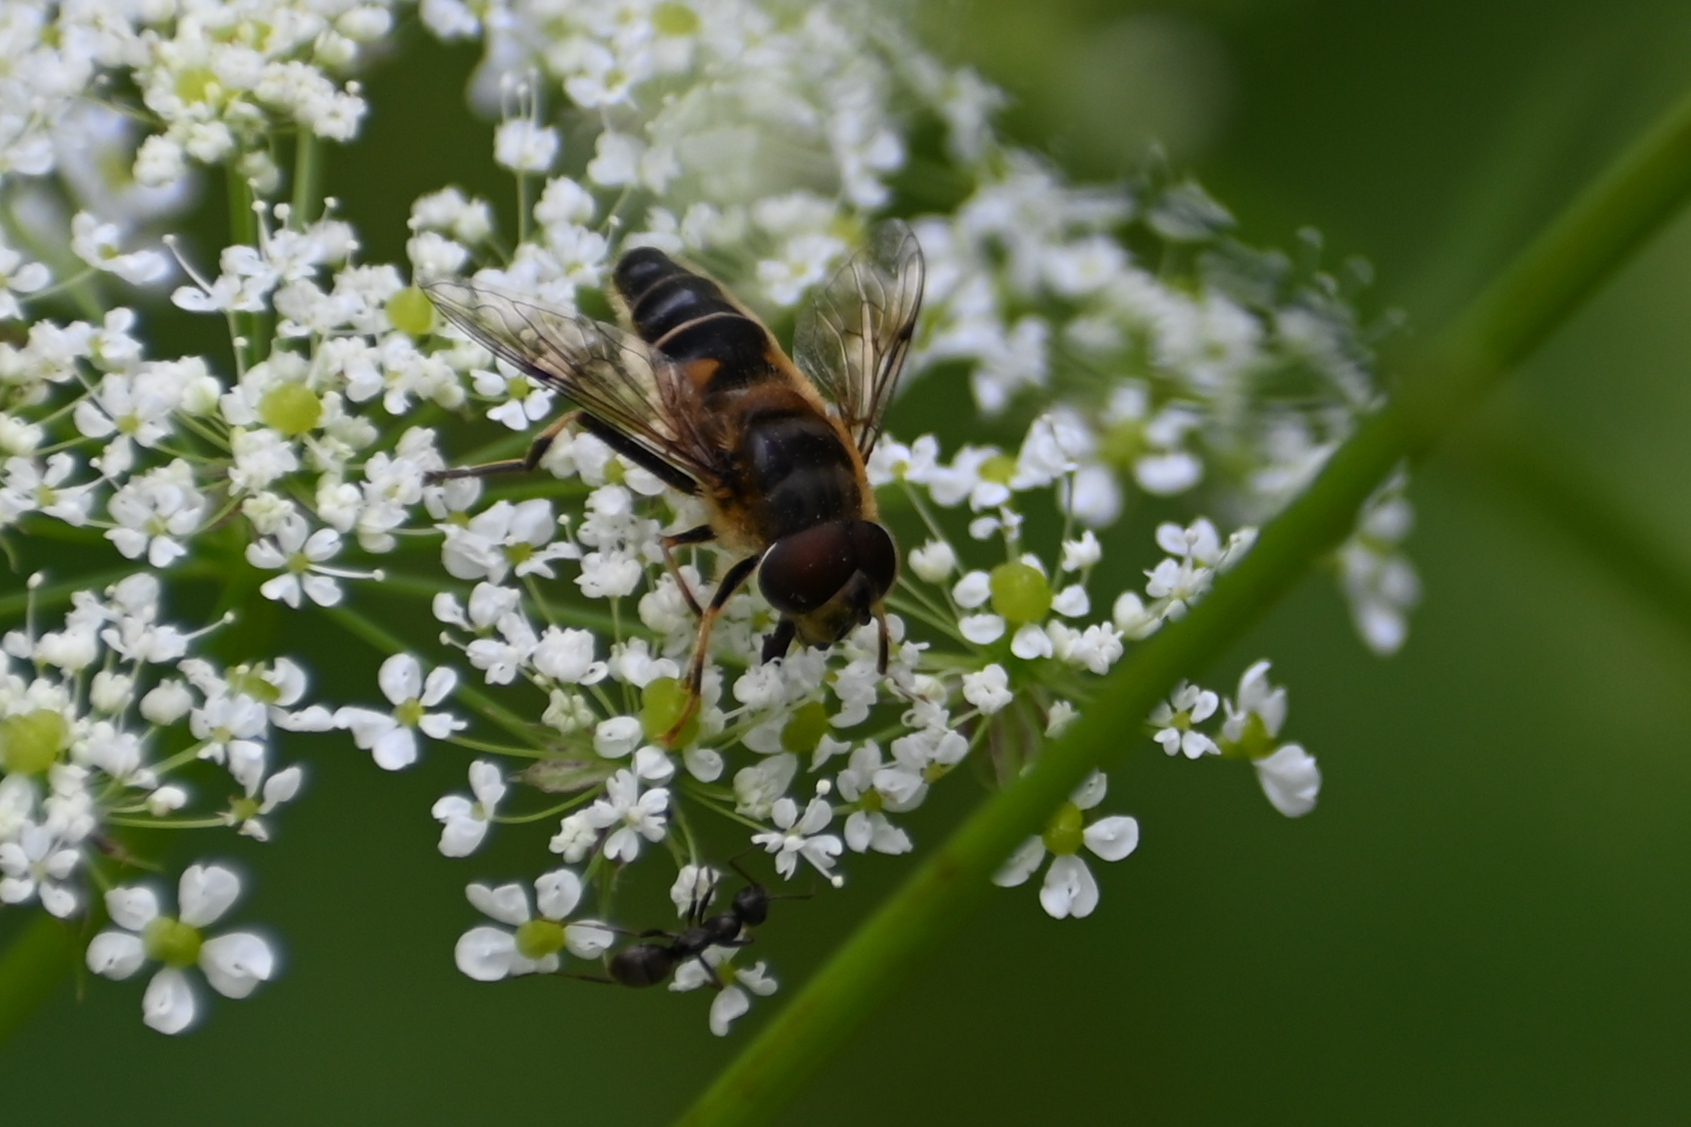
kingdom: Animalia
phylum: Arthropoda
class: Insecta
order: Diptera
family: Syrphidae
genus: Eristalis
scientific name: Eristalis pertinax
